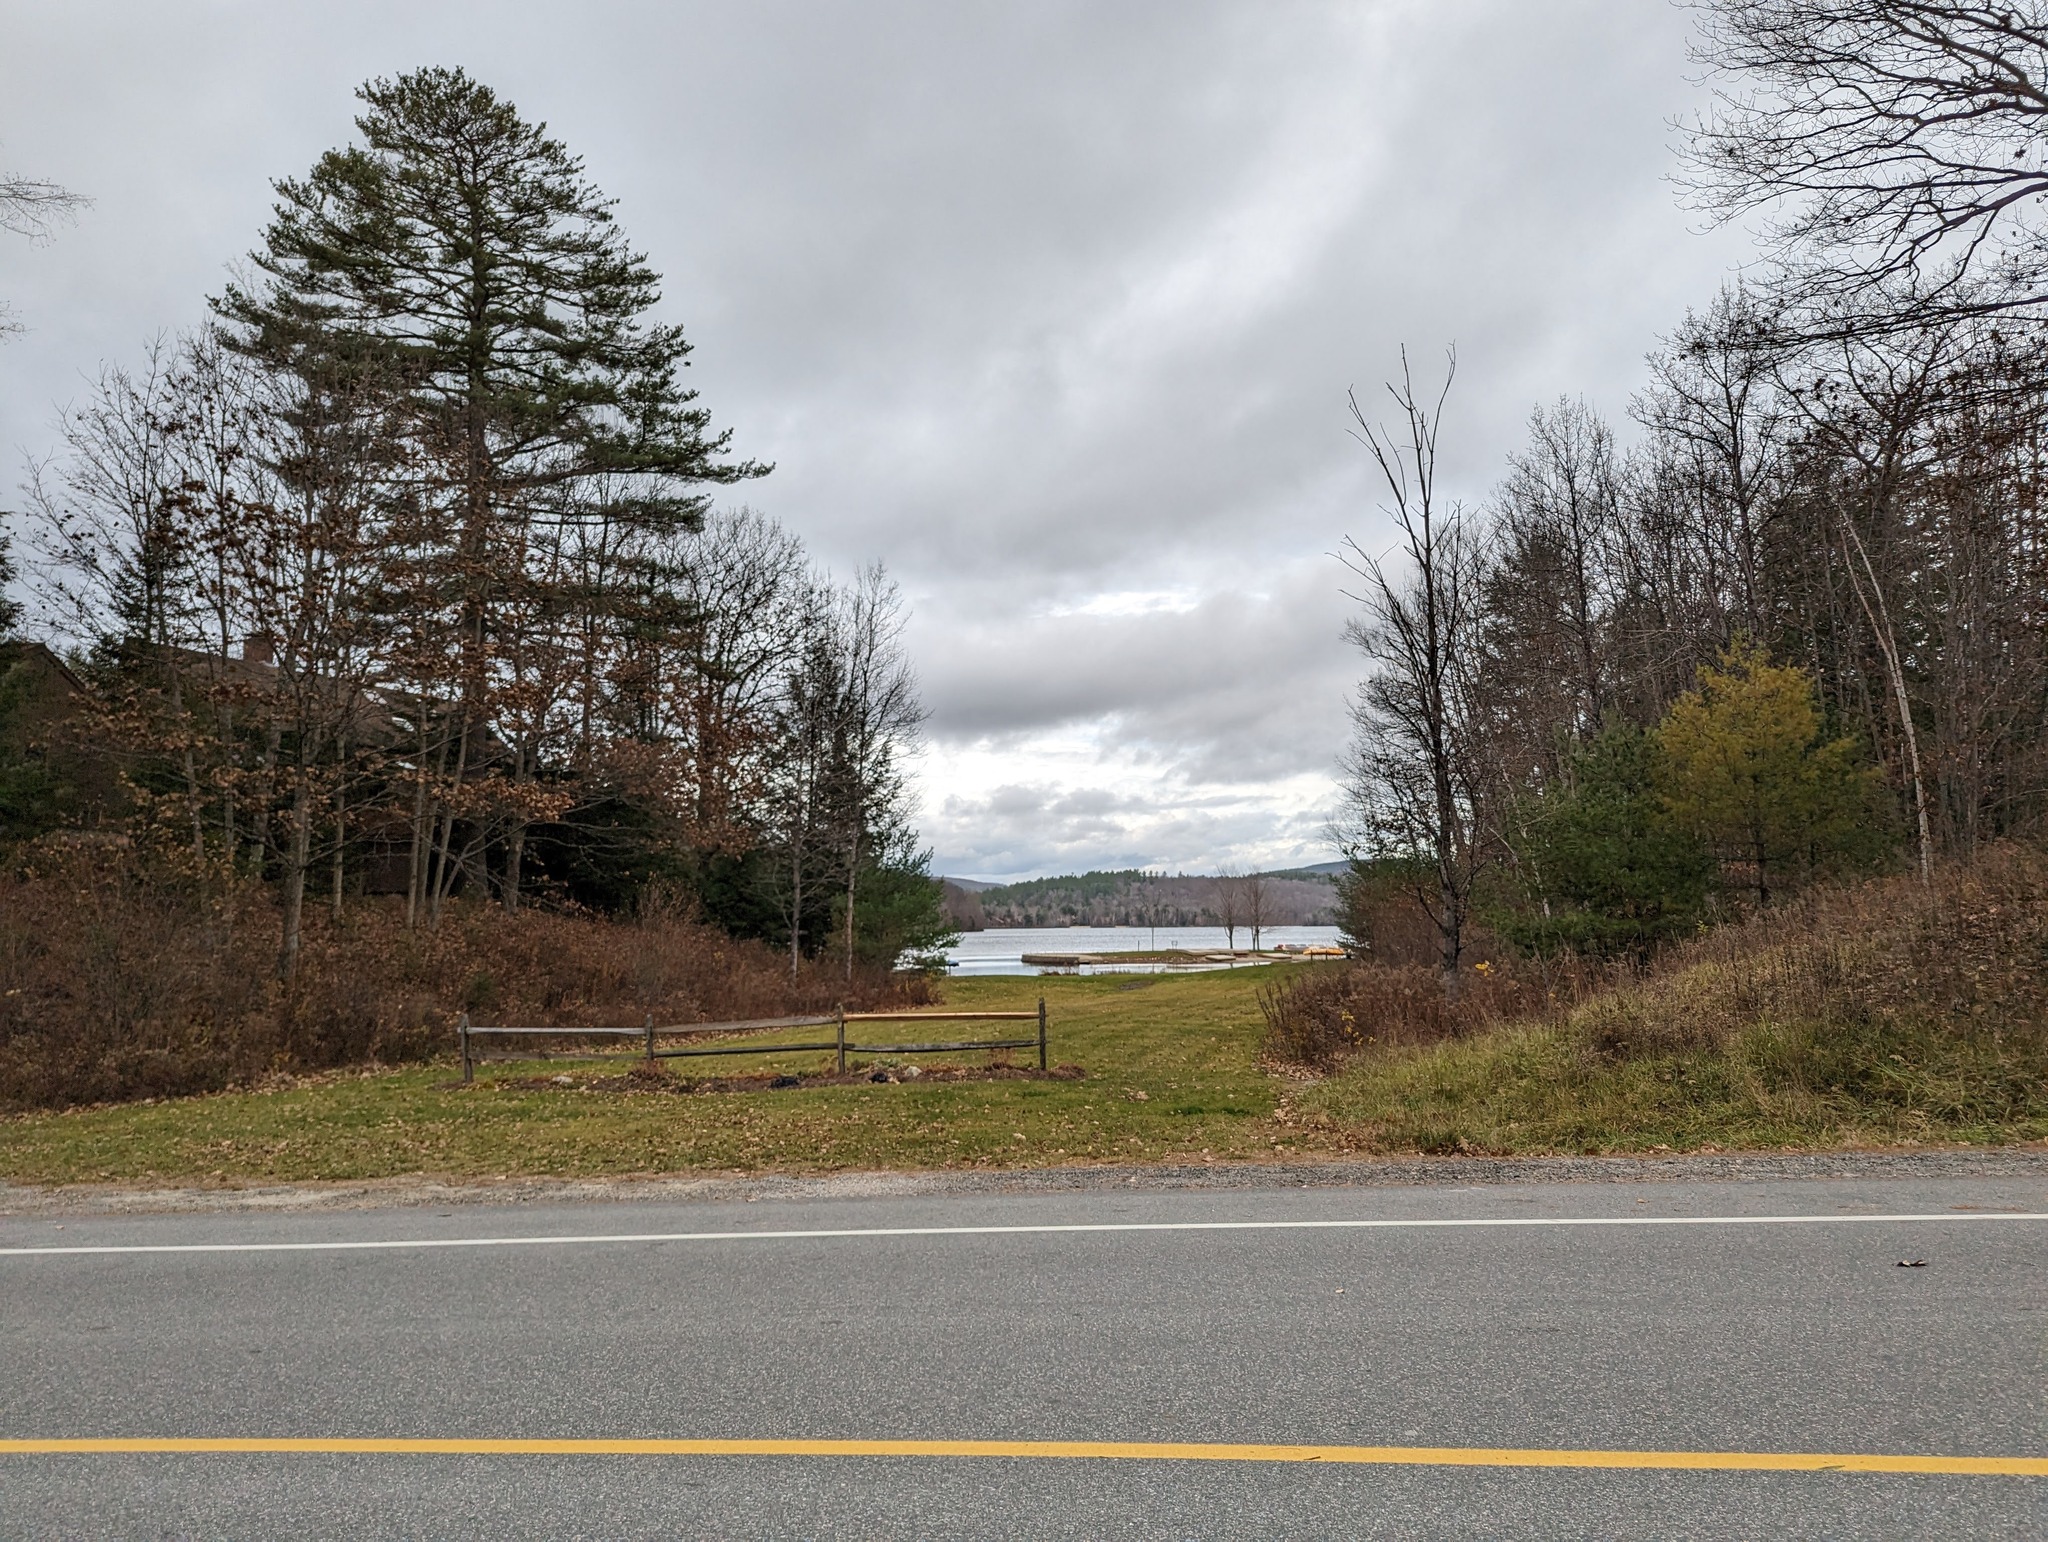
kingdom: Plantae
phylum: Tracheophyta
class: Pinopsida
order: Pinales
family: Pinaceae
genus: Pinus
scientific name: Pinus strobus
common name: Weymouth pine
